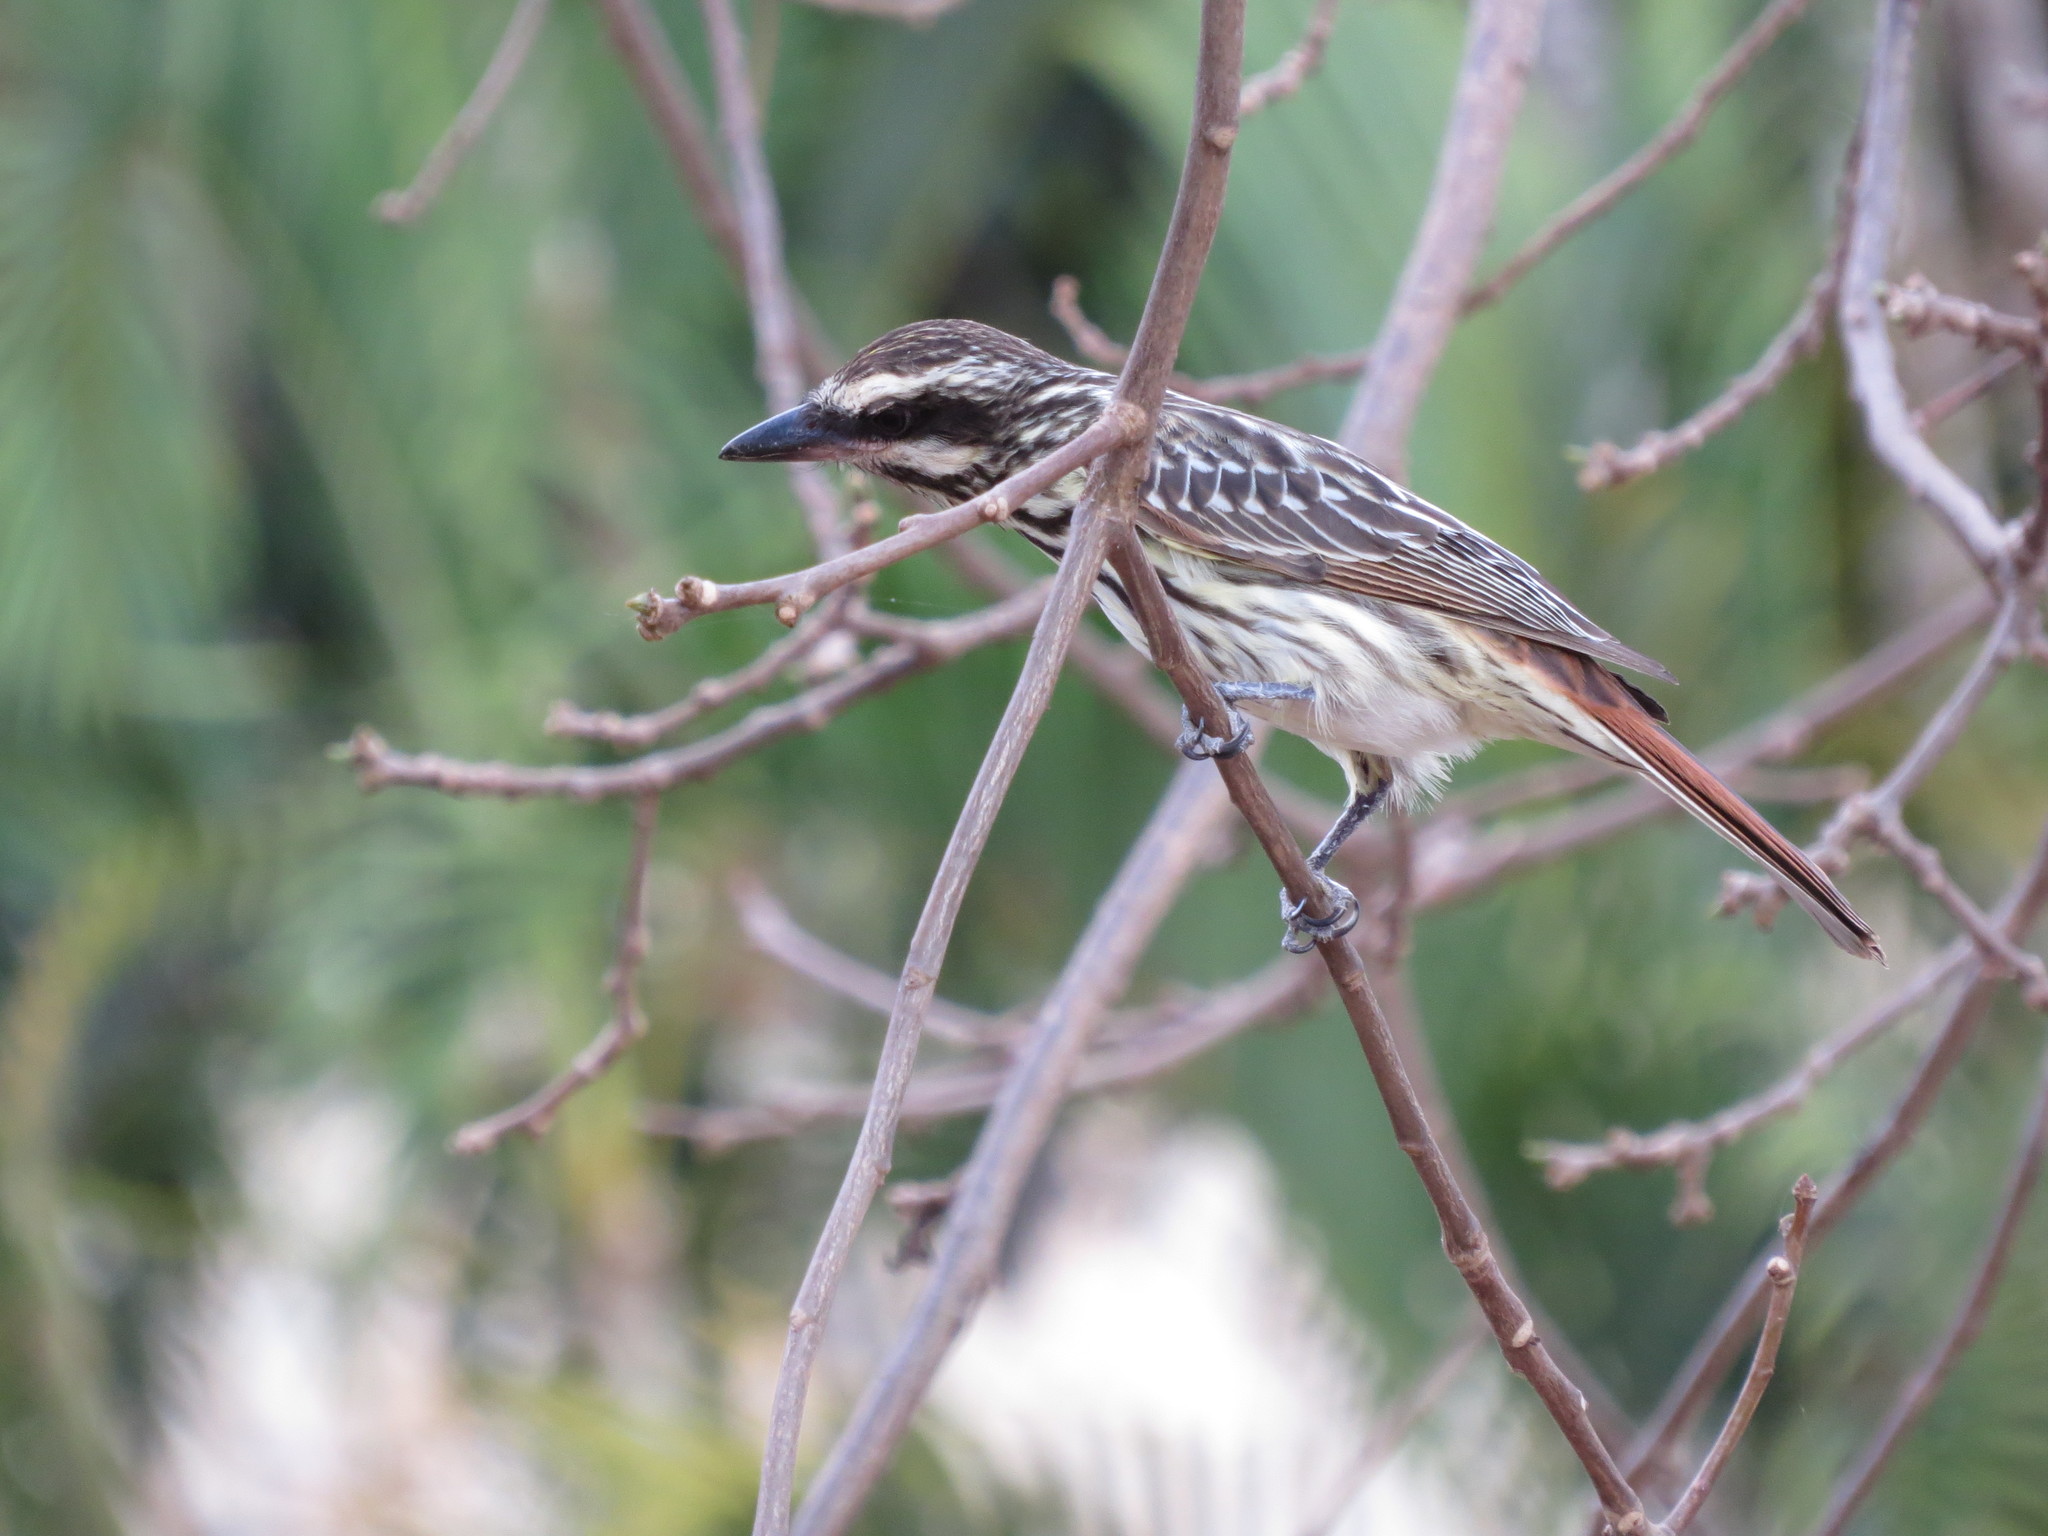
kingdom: Animalia
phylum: Chordata
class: Aves
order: Passeriformes
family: Tyrannidae
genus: Myiodynastes
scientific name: Myiodynastes maculatus
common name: Streaked flycatcher
